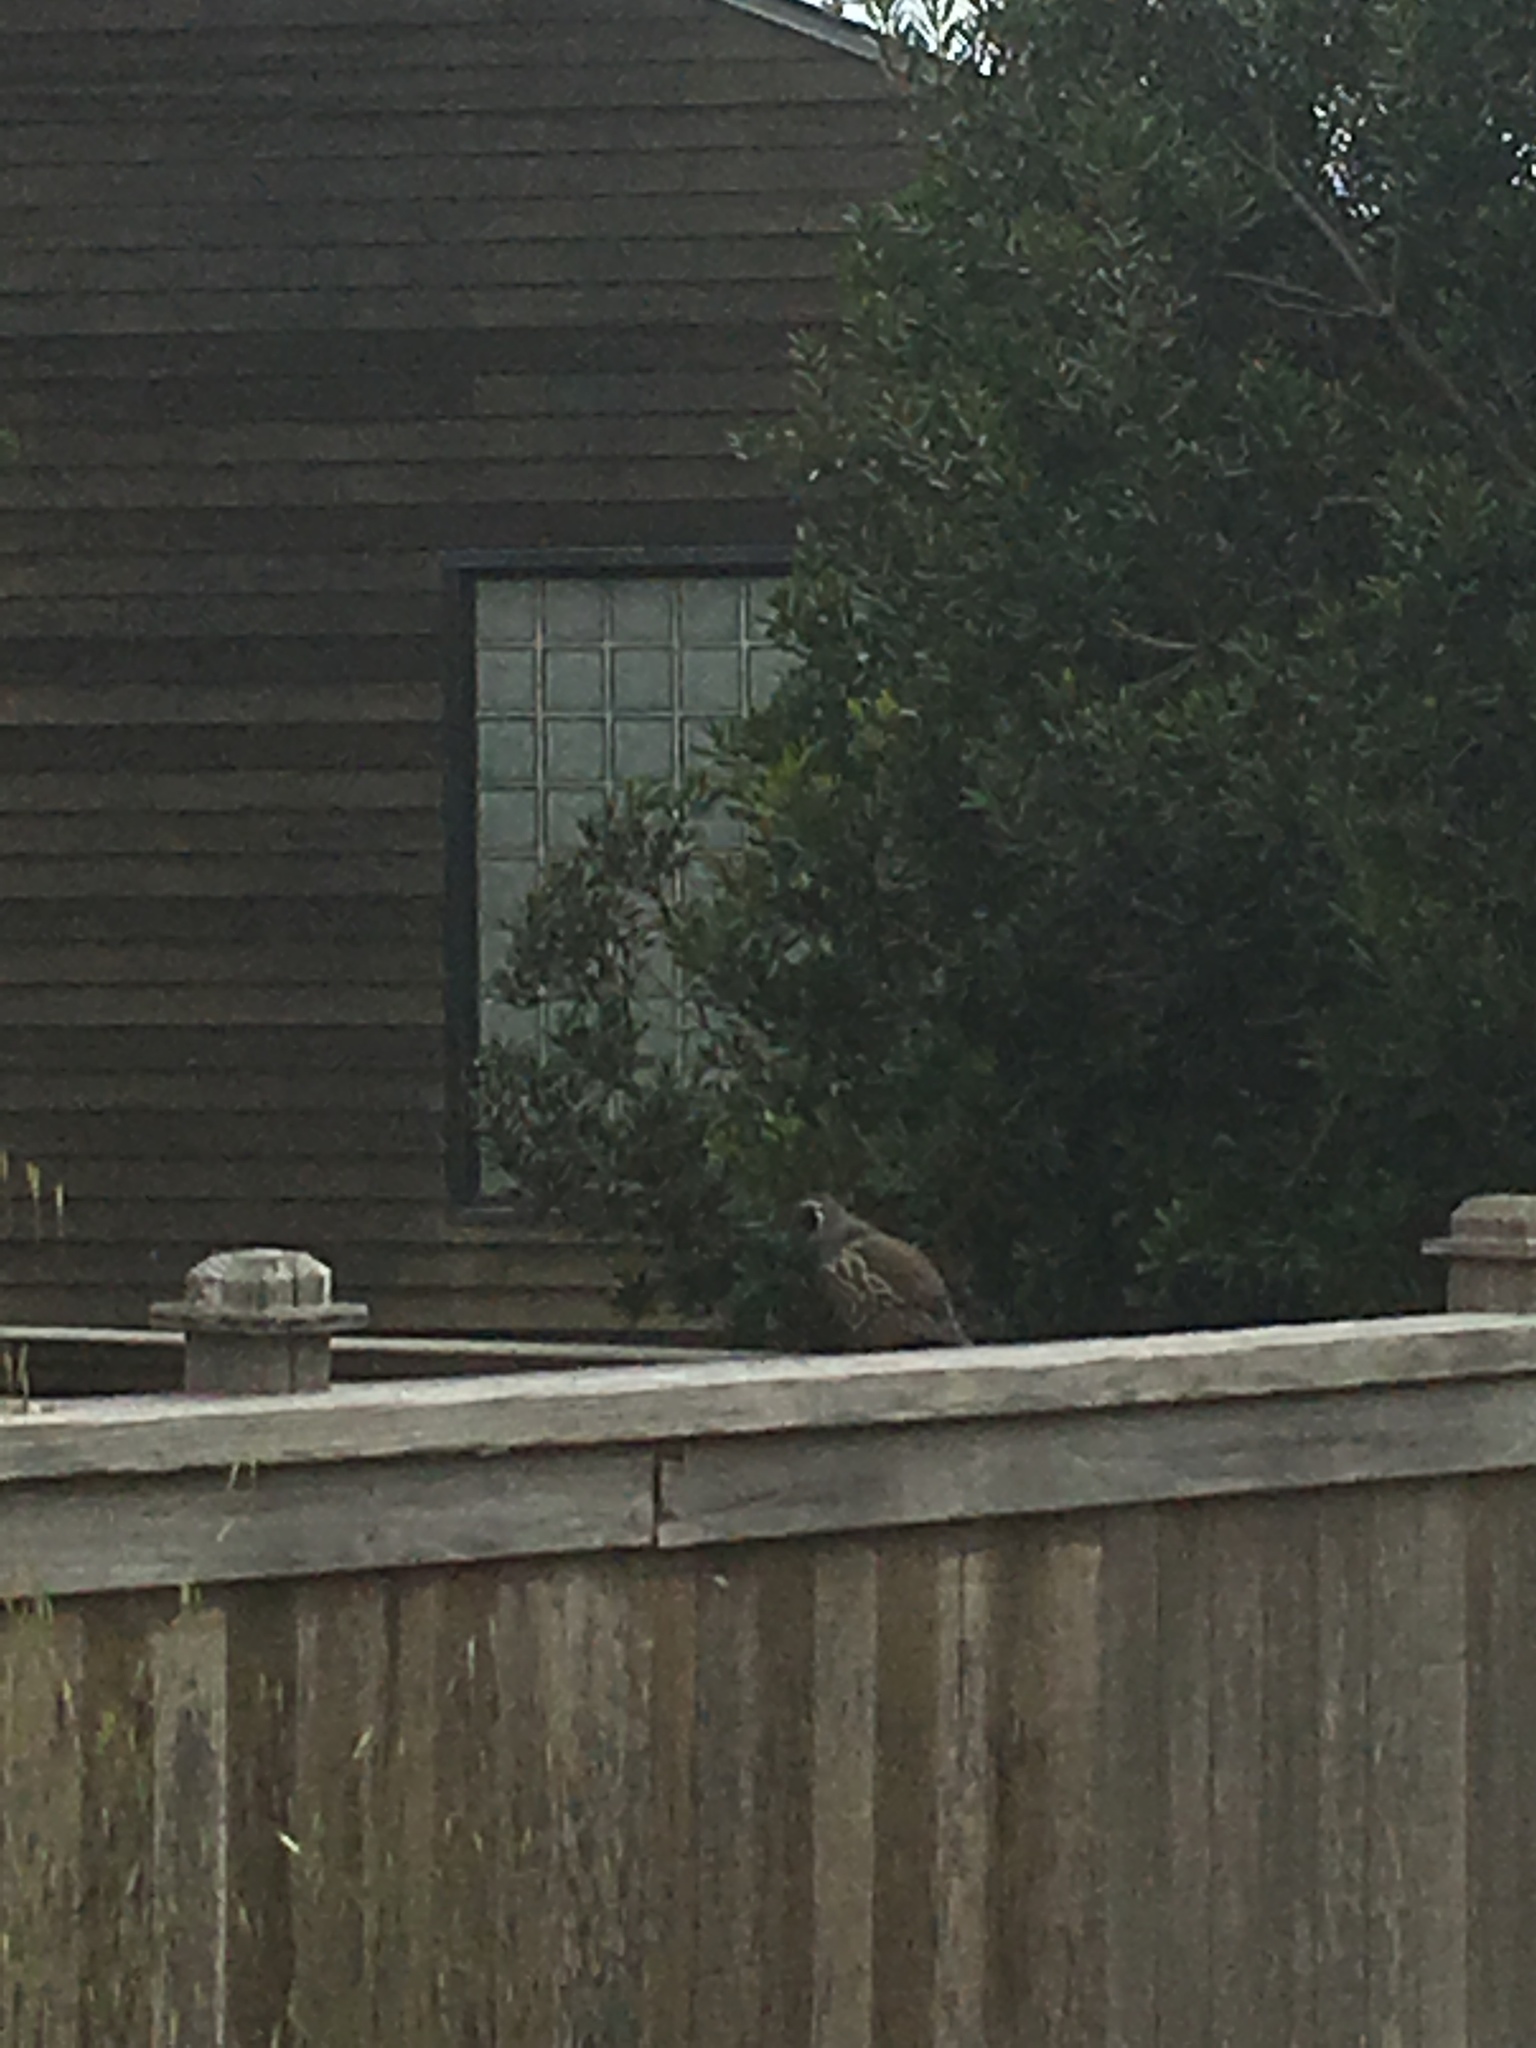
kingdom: Animalia
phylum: Chordata
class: Aves
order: Galliformes
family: Odontophoridae
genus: Callipepla
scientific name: Callipepla californica
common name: California quail
